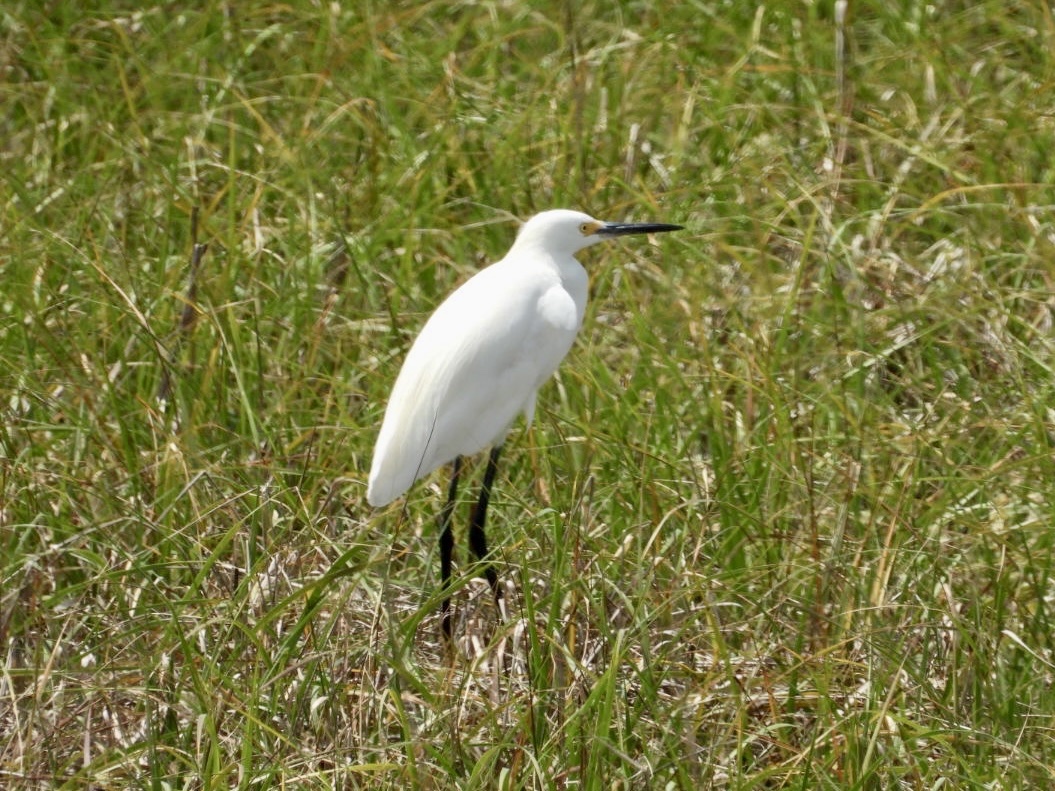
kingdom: Animalia
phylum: Chordata
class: Aves
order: Pelecaniformes
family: Ardeidae
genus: Egretta
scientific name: Egretta thula
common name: Snowy egret
